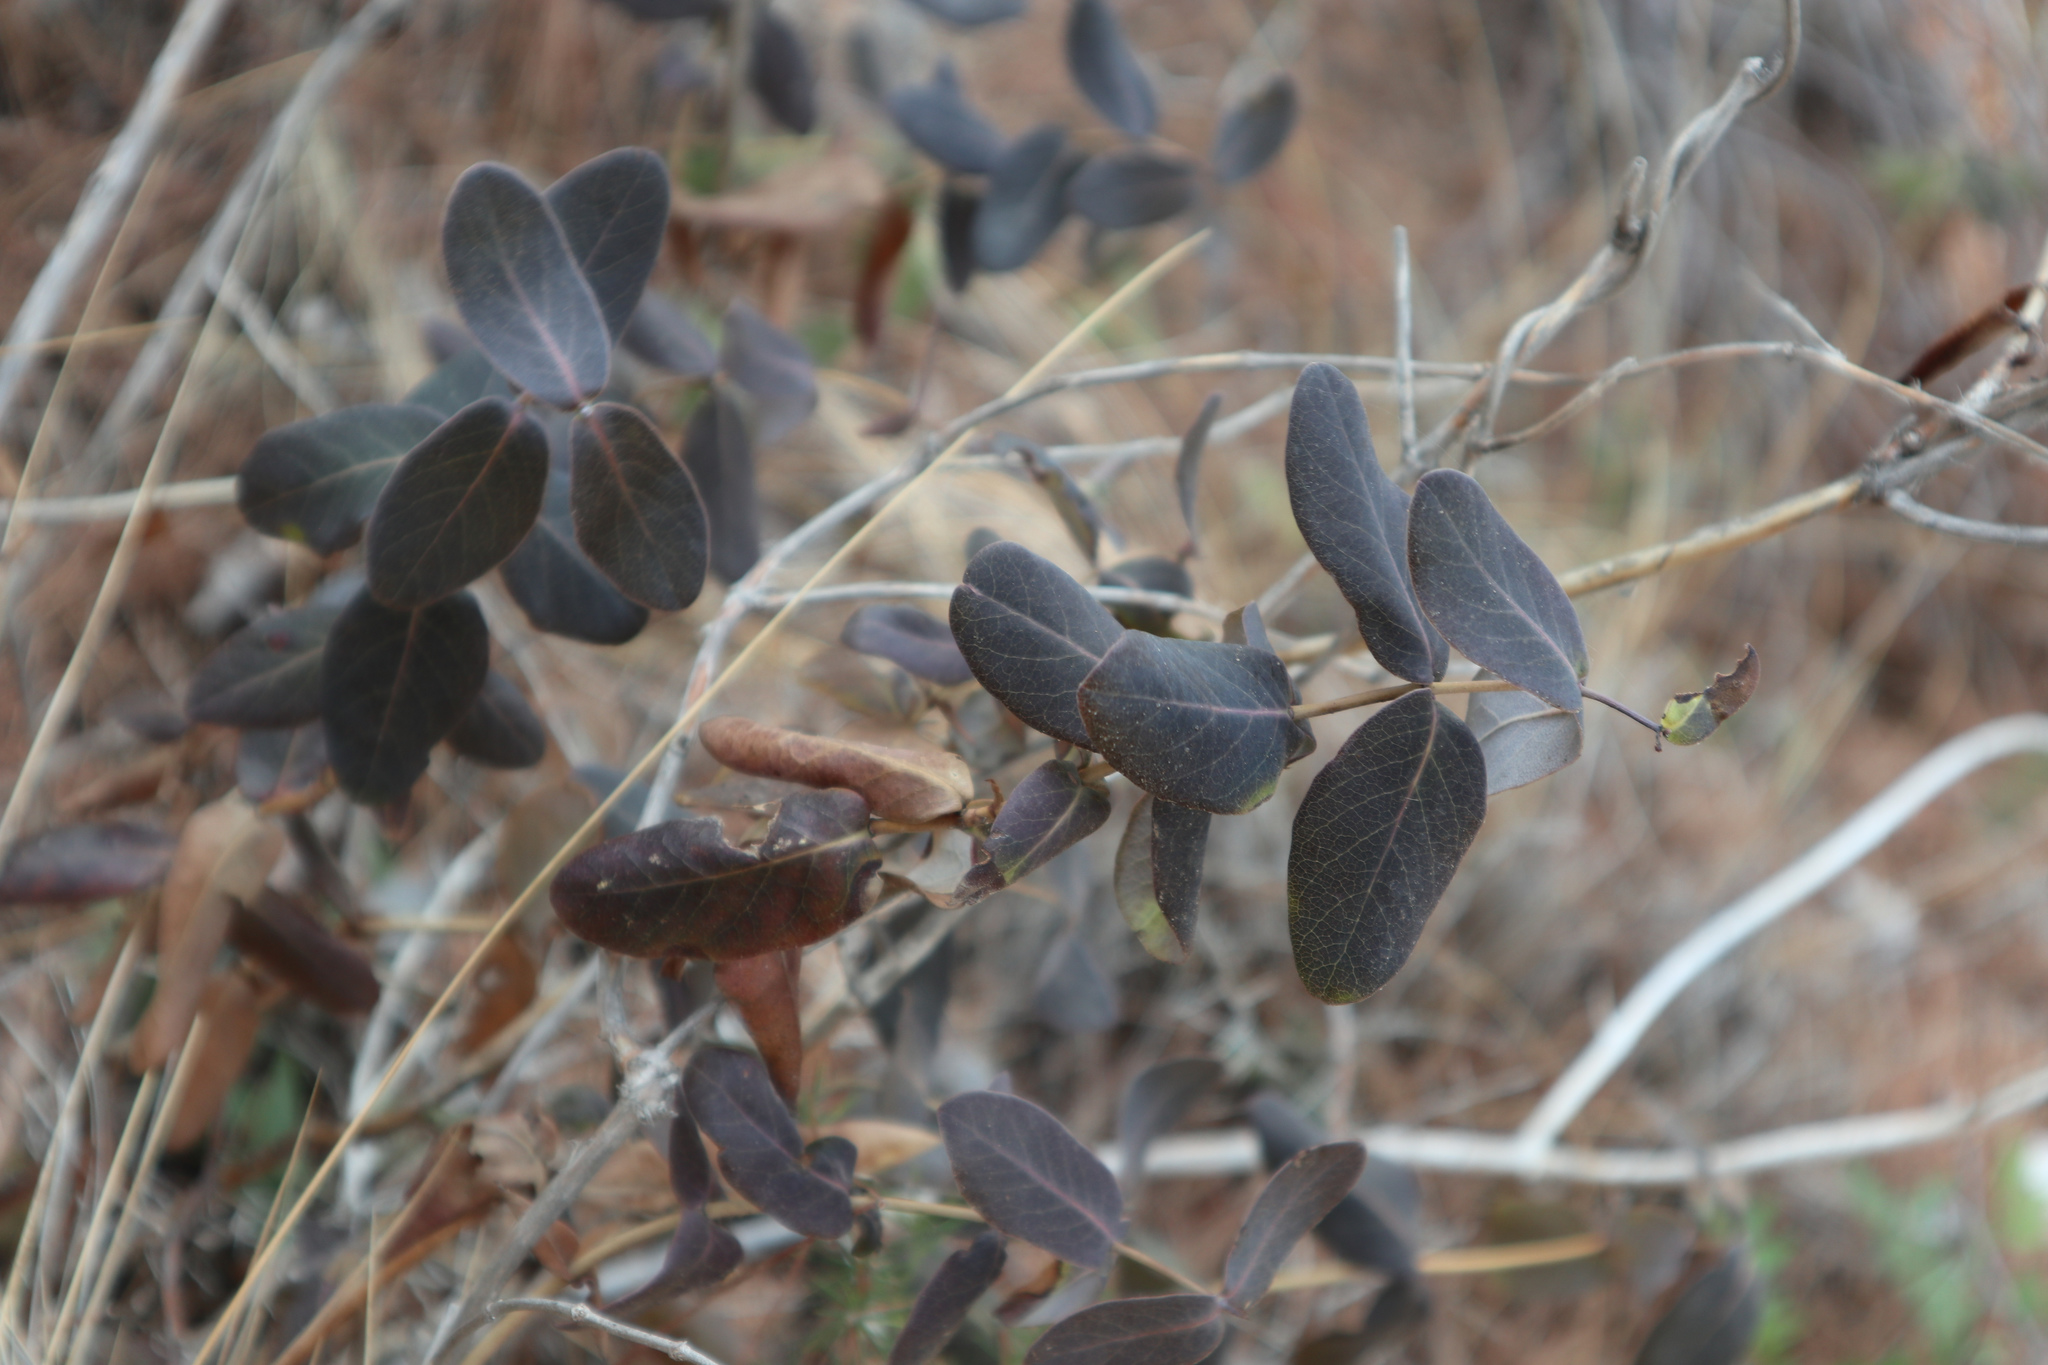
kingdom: Plantae
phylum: Tracheophyta
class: Magnoliopsida
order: Dipsacales
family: Caprifoliaceae
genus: Lonicera
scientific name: Lonicera implexa
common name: Minorca honeysuckle
